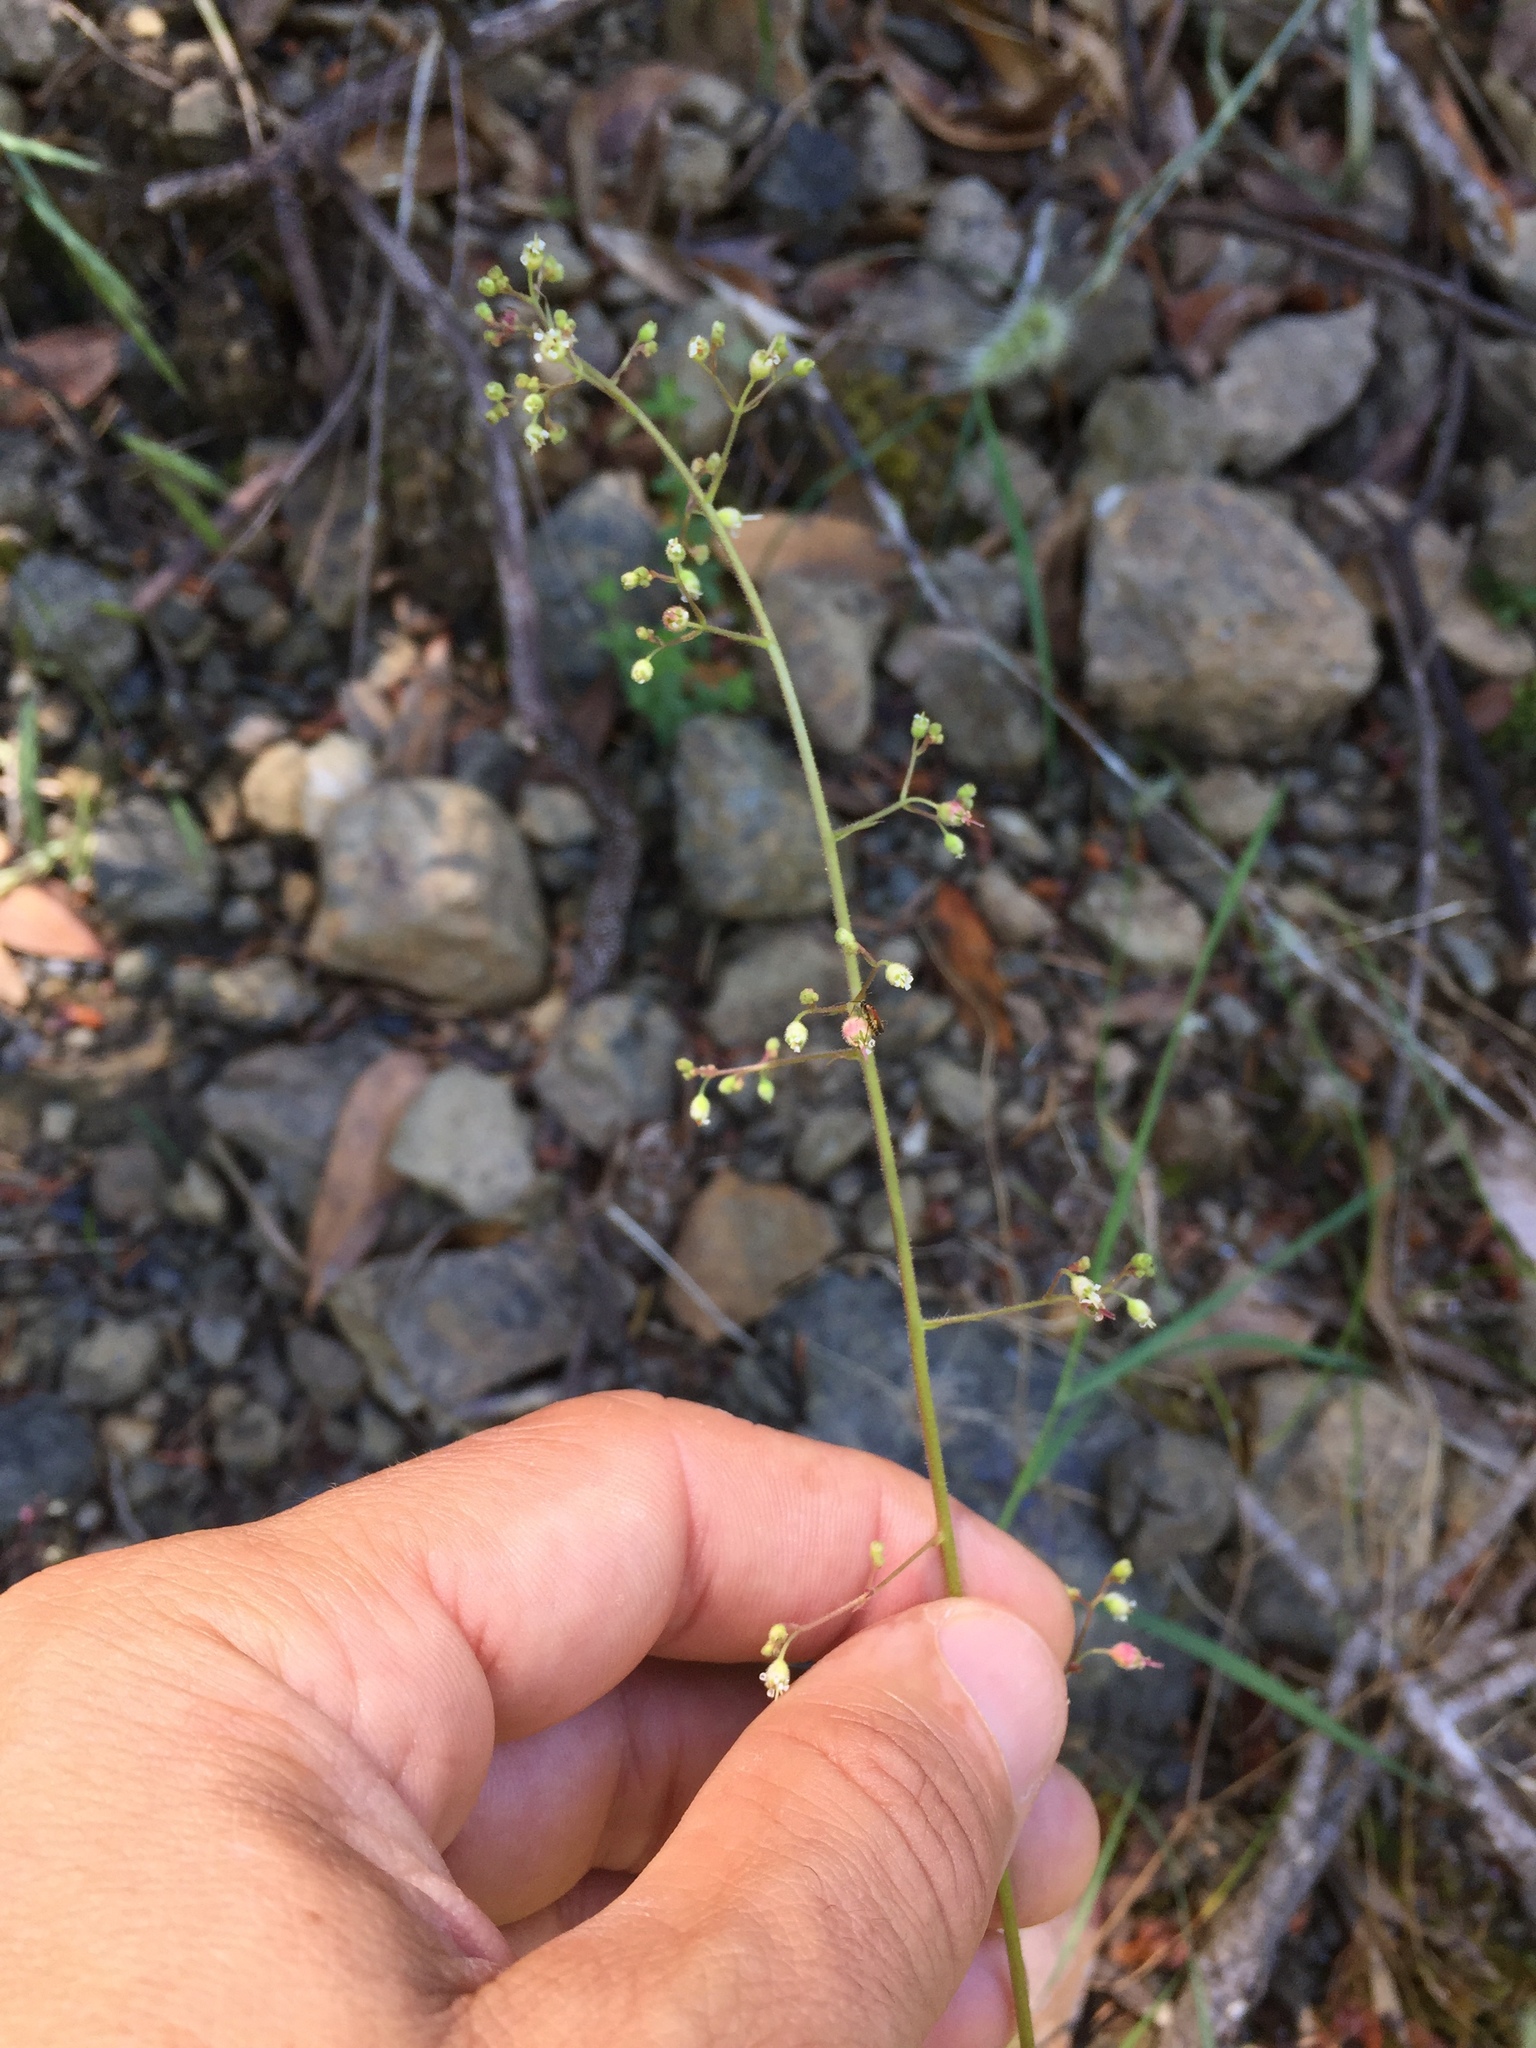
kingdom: Plantae
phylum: Tracheophyta
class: Magnoliopsida
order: Saxifragales
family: Saxifragaceae
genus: Heuchera
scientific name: Heuchera micrantha
